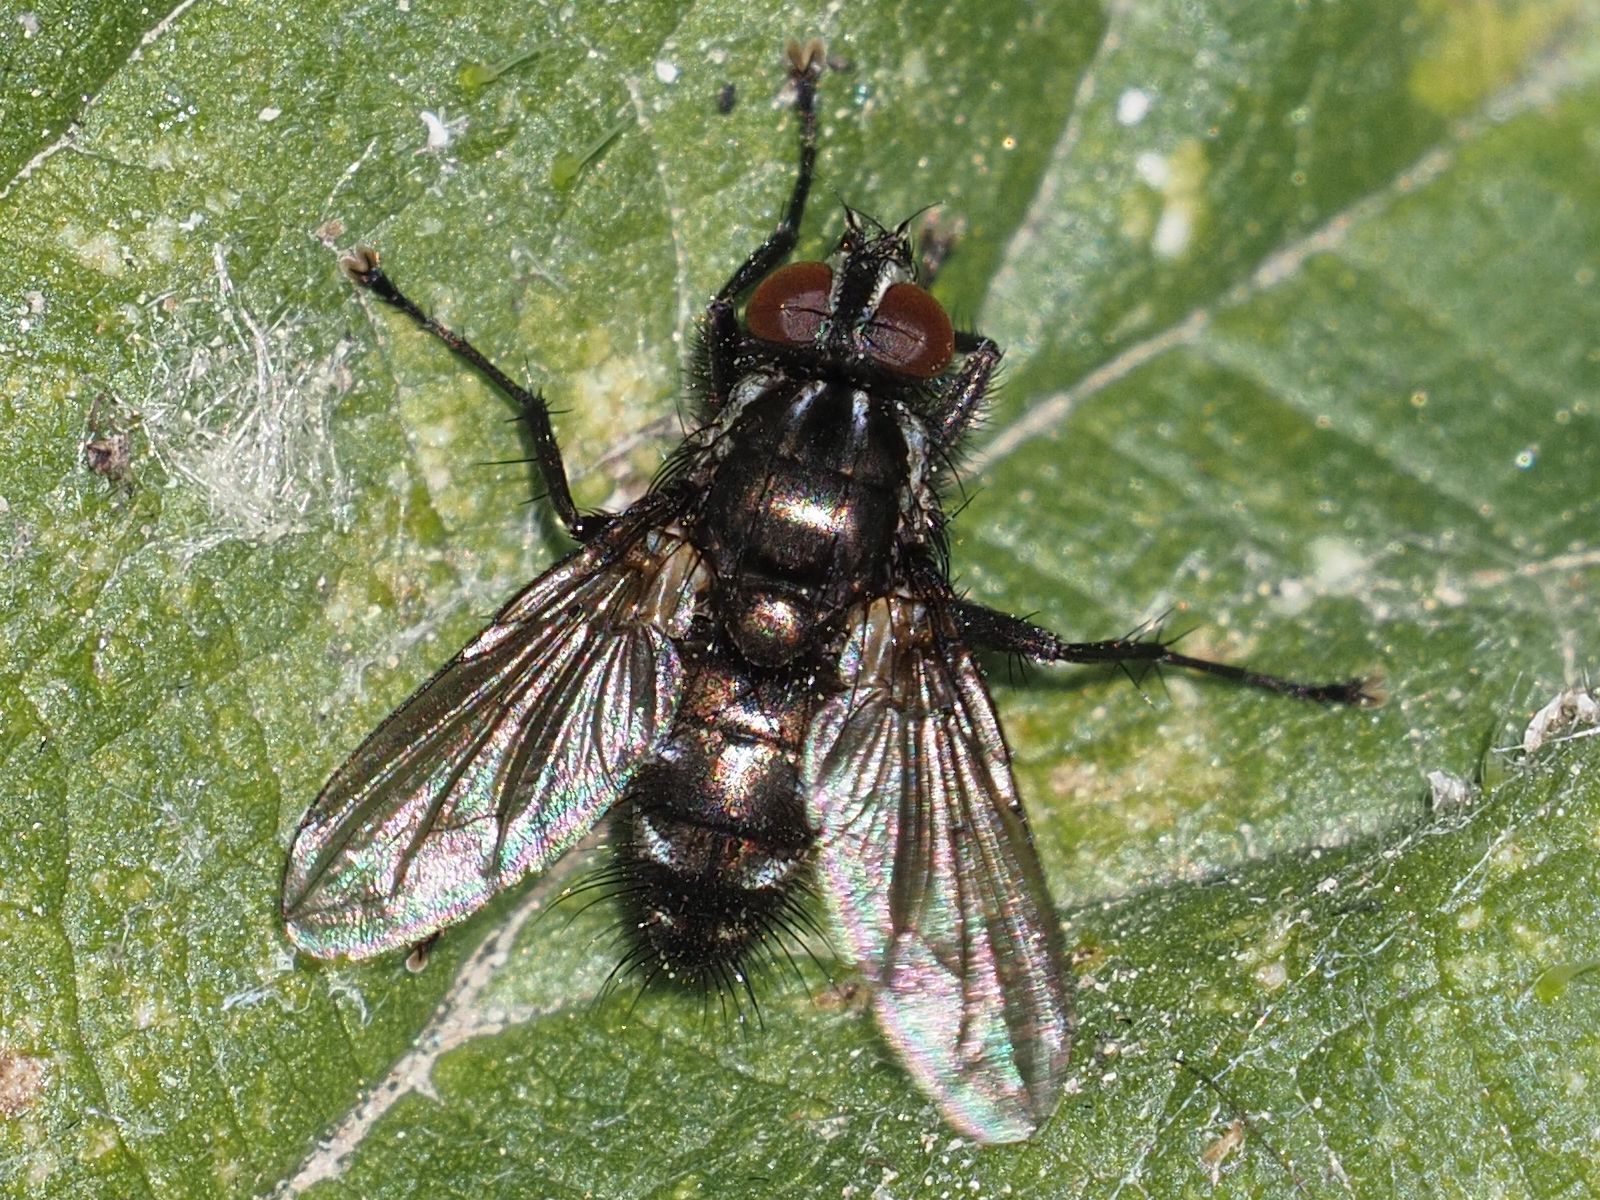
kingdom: Animalia
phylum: Arthropoda
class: Insecta
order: Diptera
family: Calliphoridae
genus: Rhinomorinia
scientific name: Rhinomorinia sarcophagina
